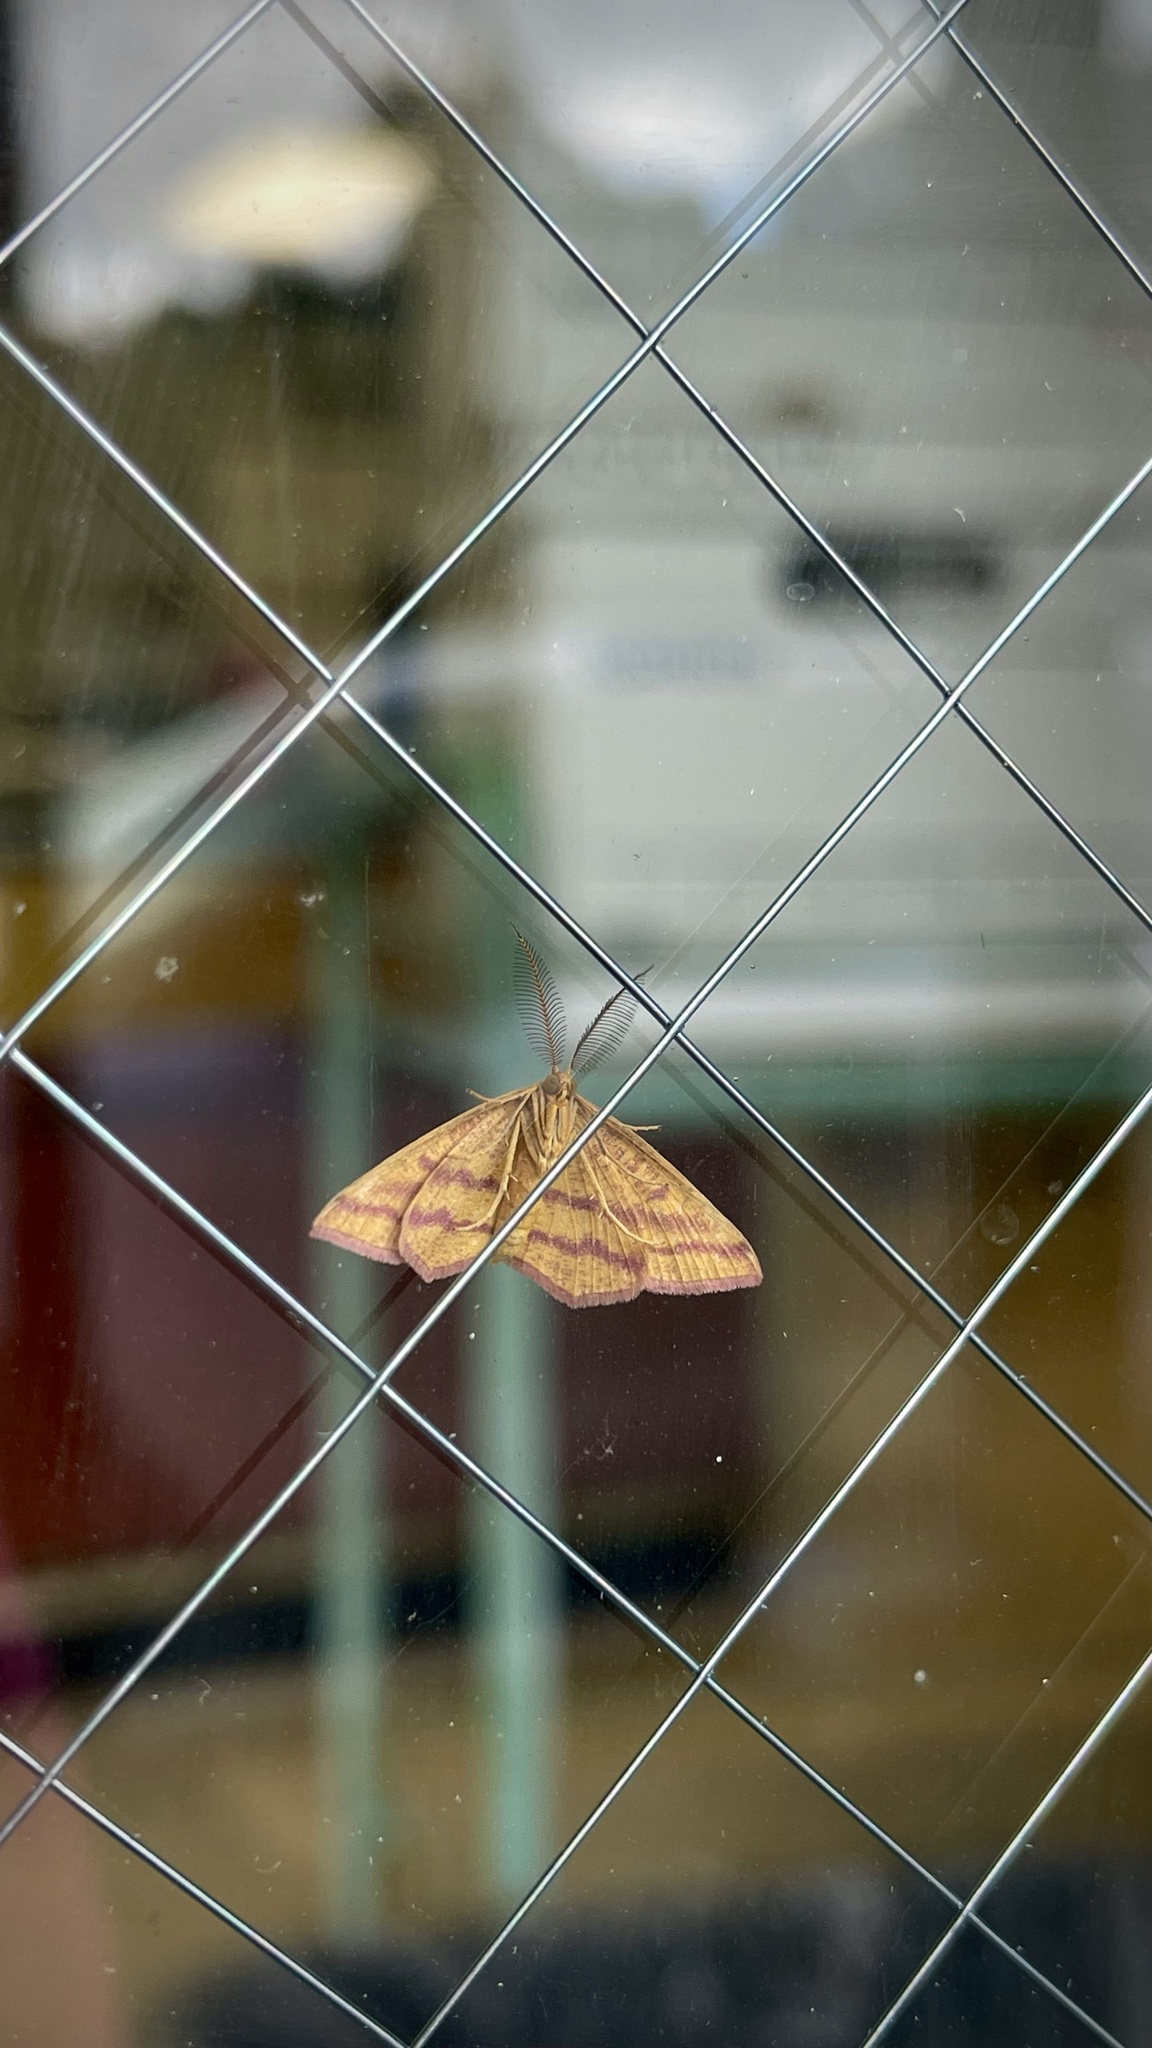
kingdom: Animalia
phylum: Arthropoda
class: Insecta
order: Lepidoptera
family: Geometridae
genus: Haematopis
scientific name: Haematopis grataria
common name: Chickweed geometer
